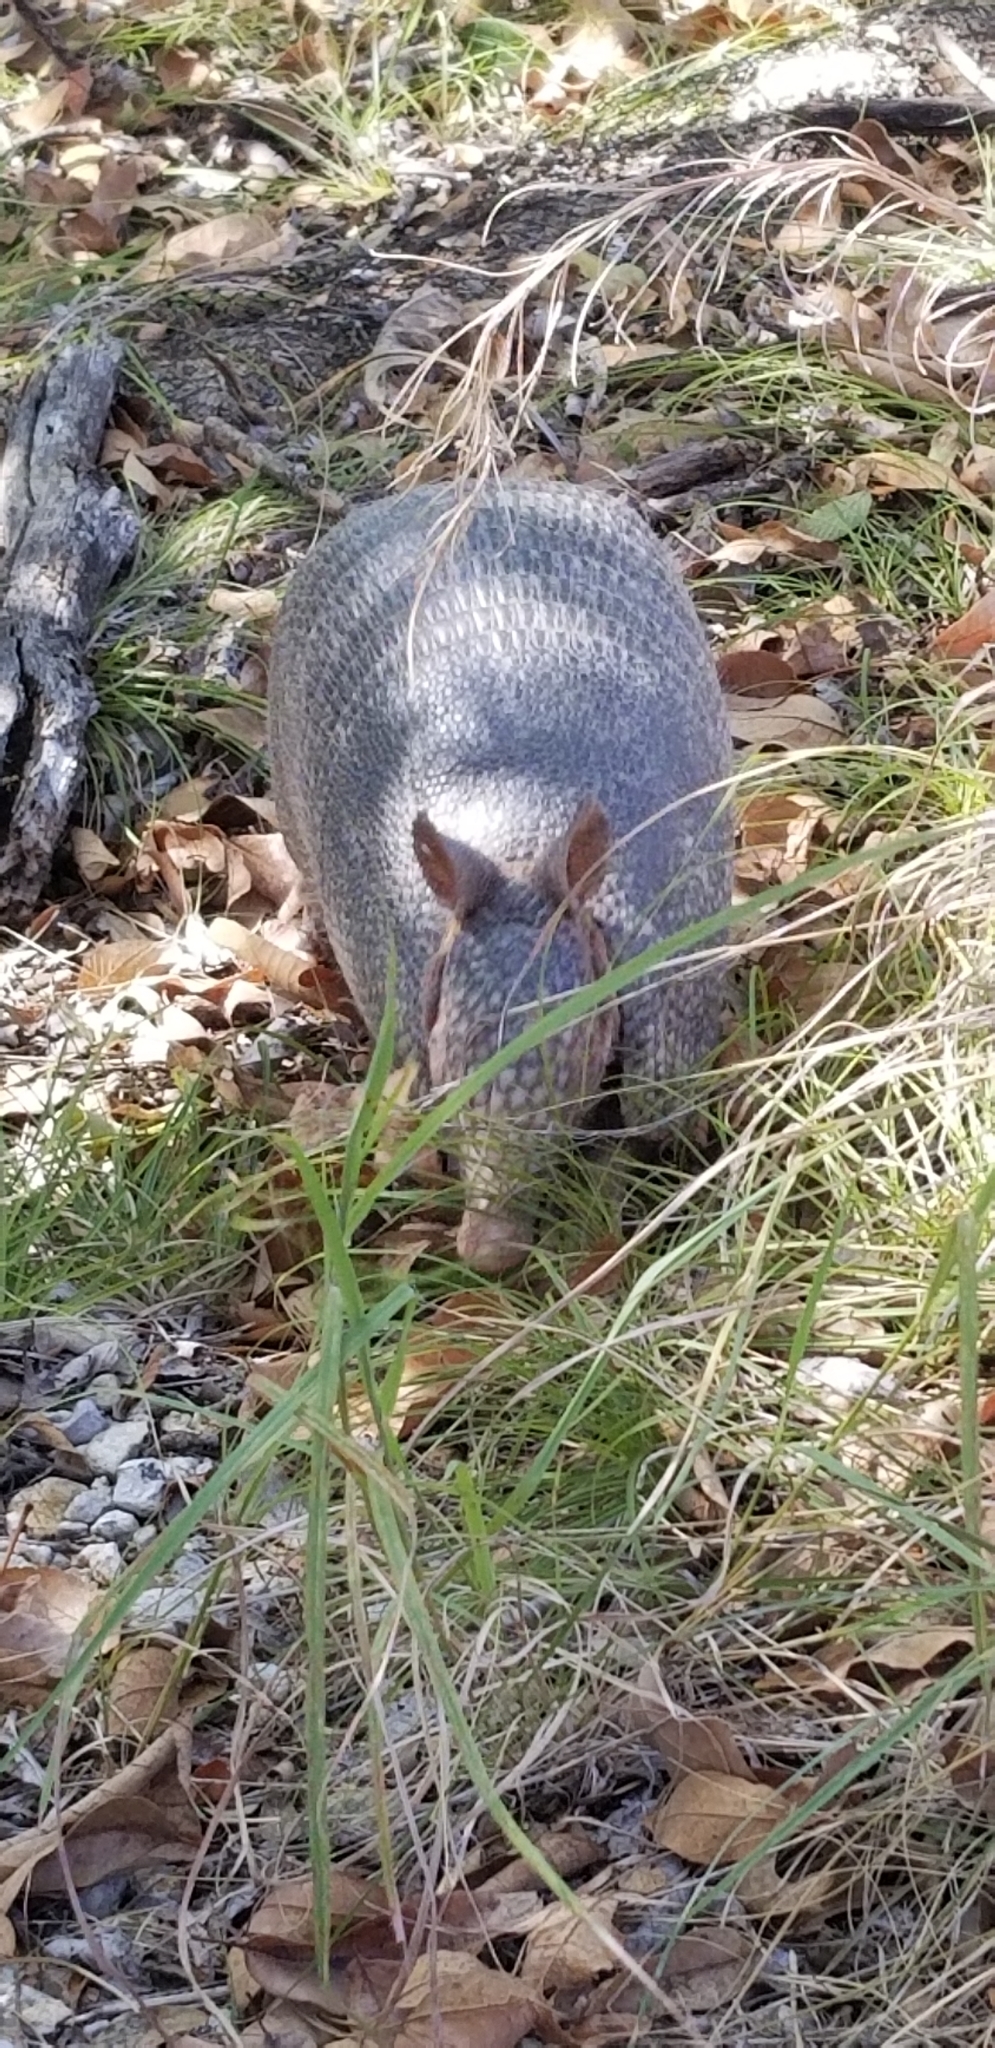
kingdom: Animalia
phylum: Chordata
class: Mammalia
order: Cingulata
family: Dasypodidae
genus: Dasypus
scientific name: Dasypus novemcinctus
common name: Nine-banded armadillo
